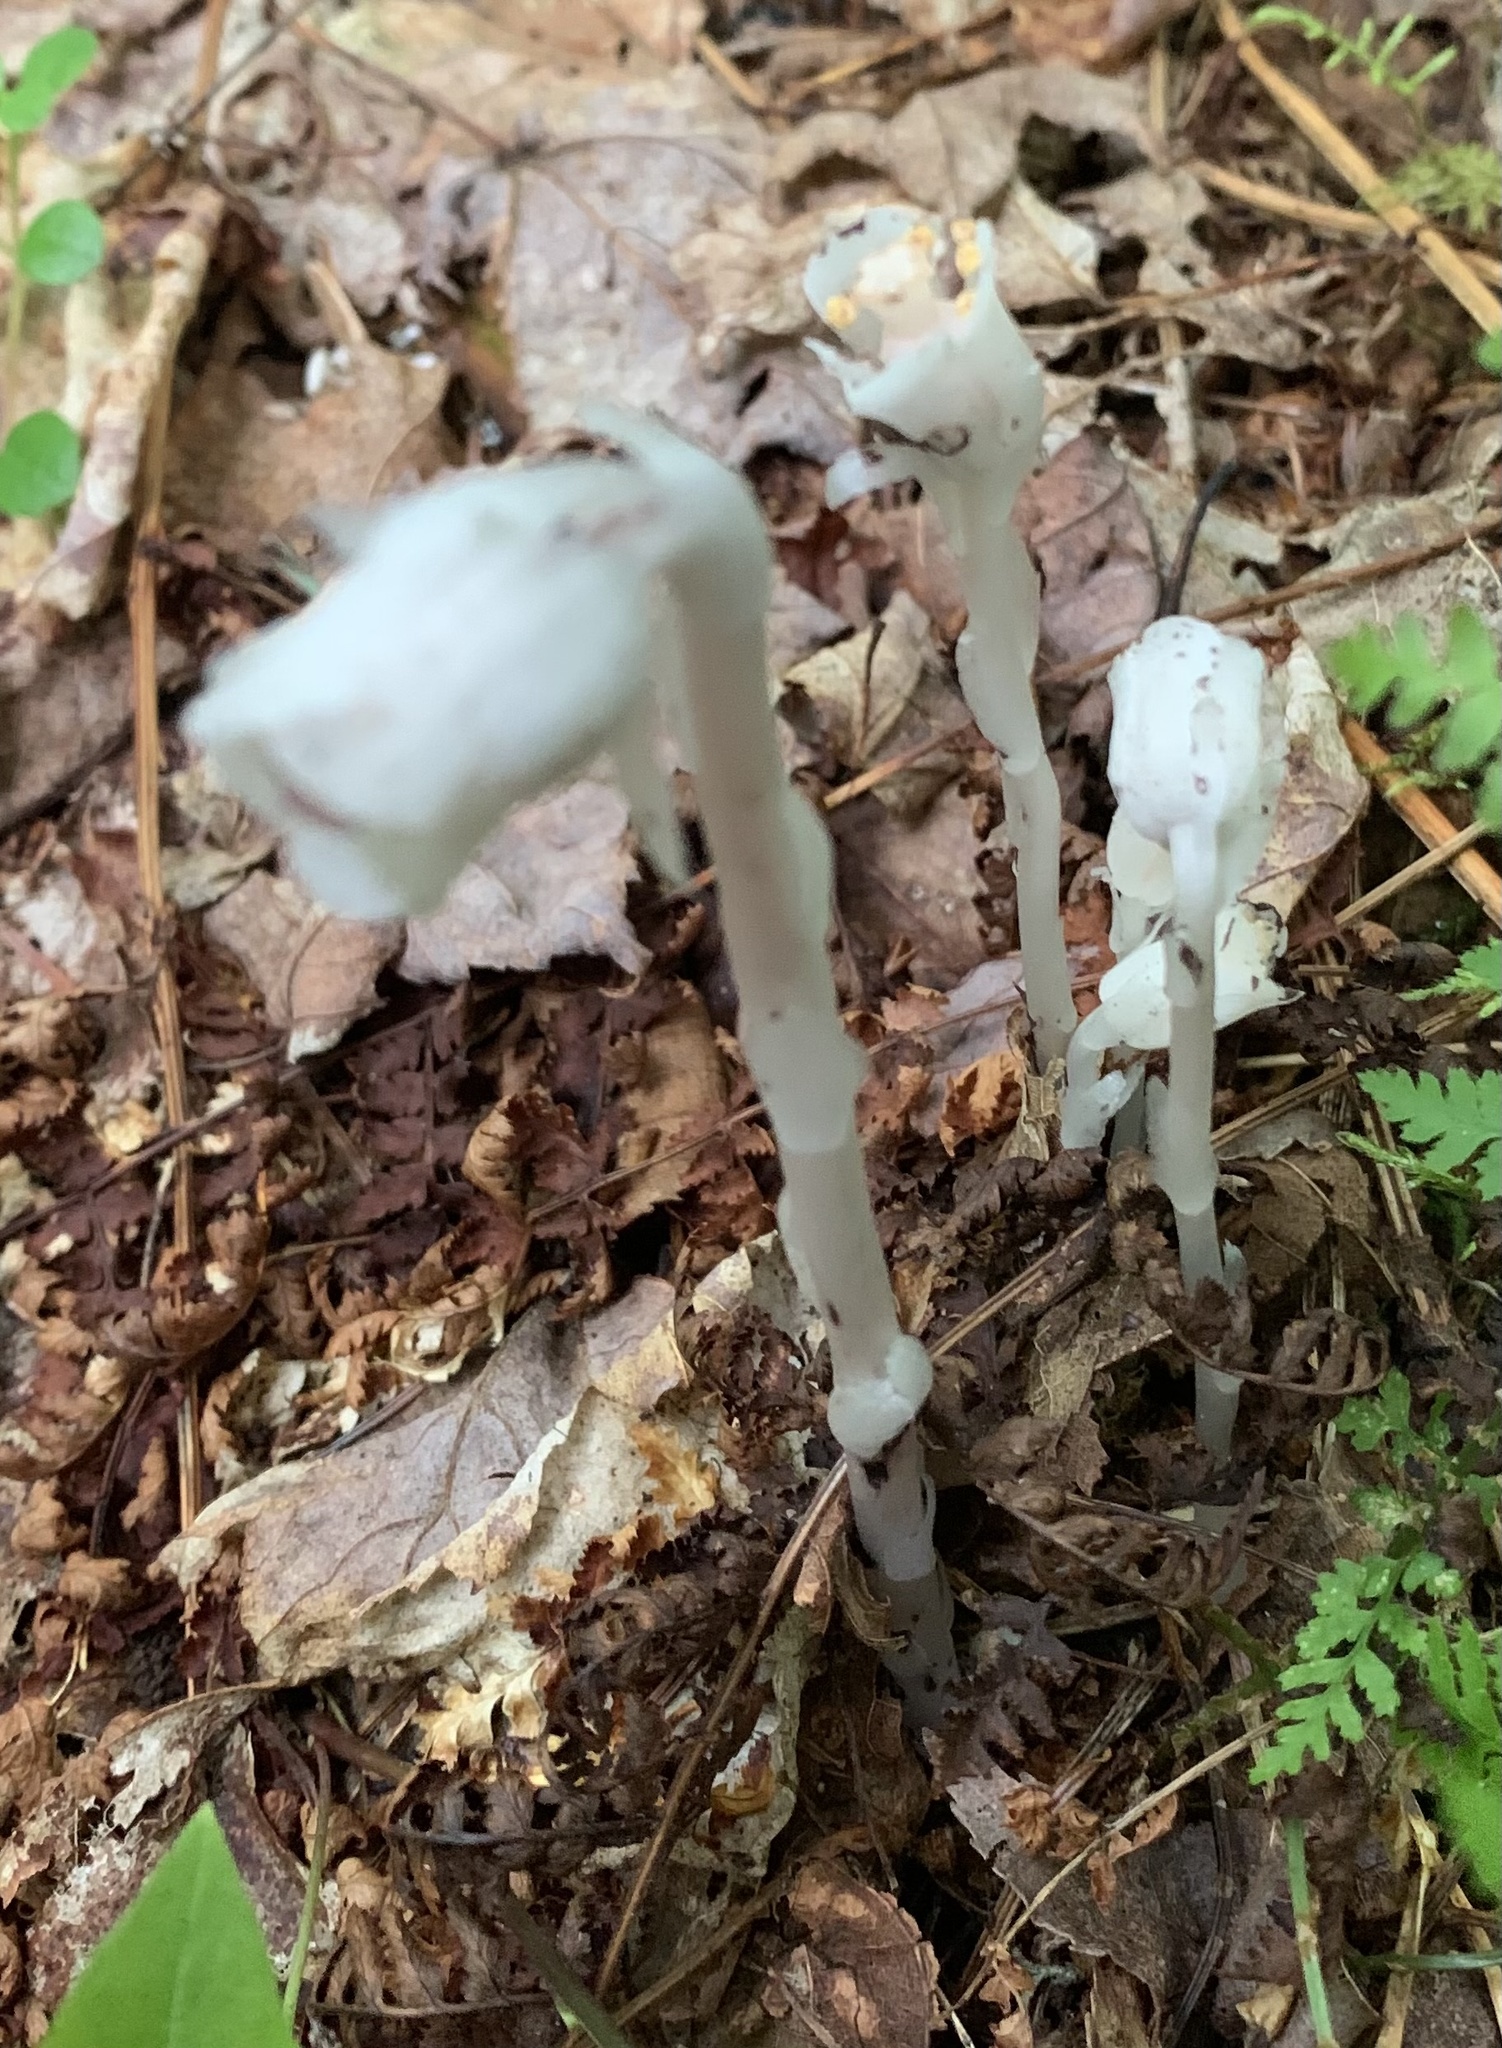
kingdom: Plantae
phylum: Tracheophyta
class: Magnoliopsida
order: Ericales
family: Ericaceae
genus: Monotropa
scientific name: Monotropa uniflora
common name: Convulsion root
